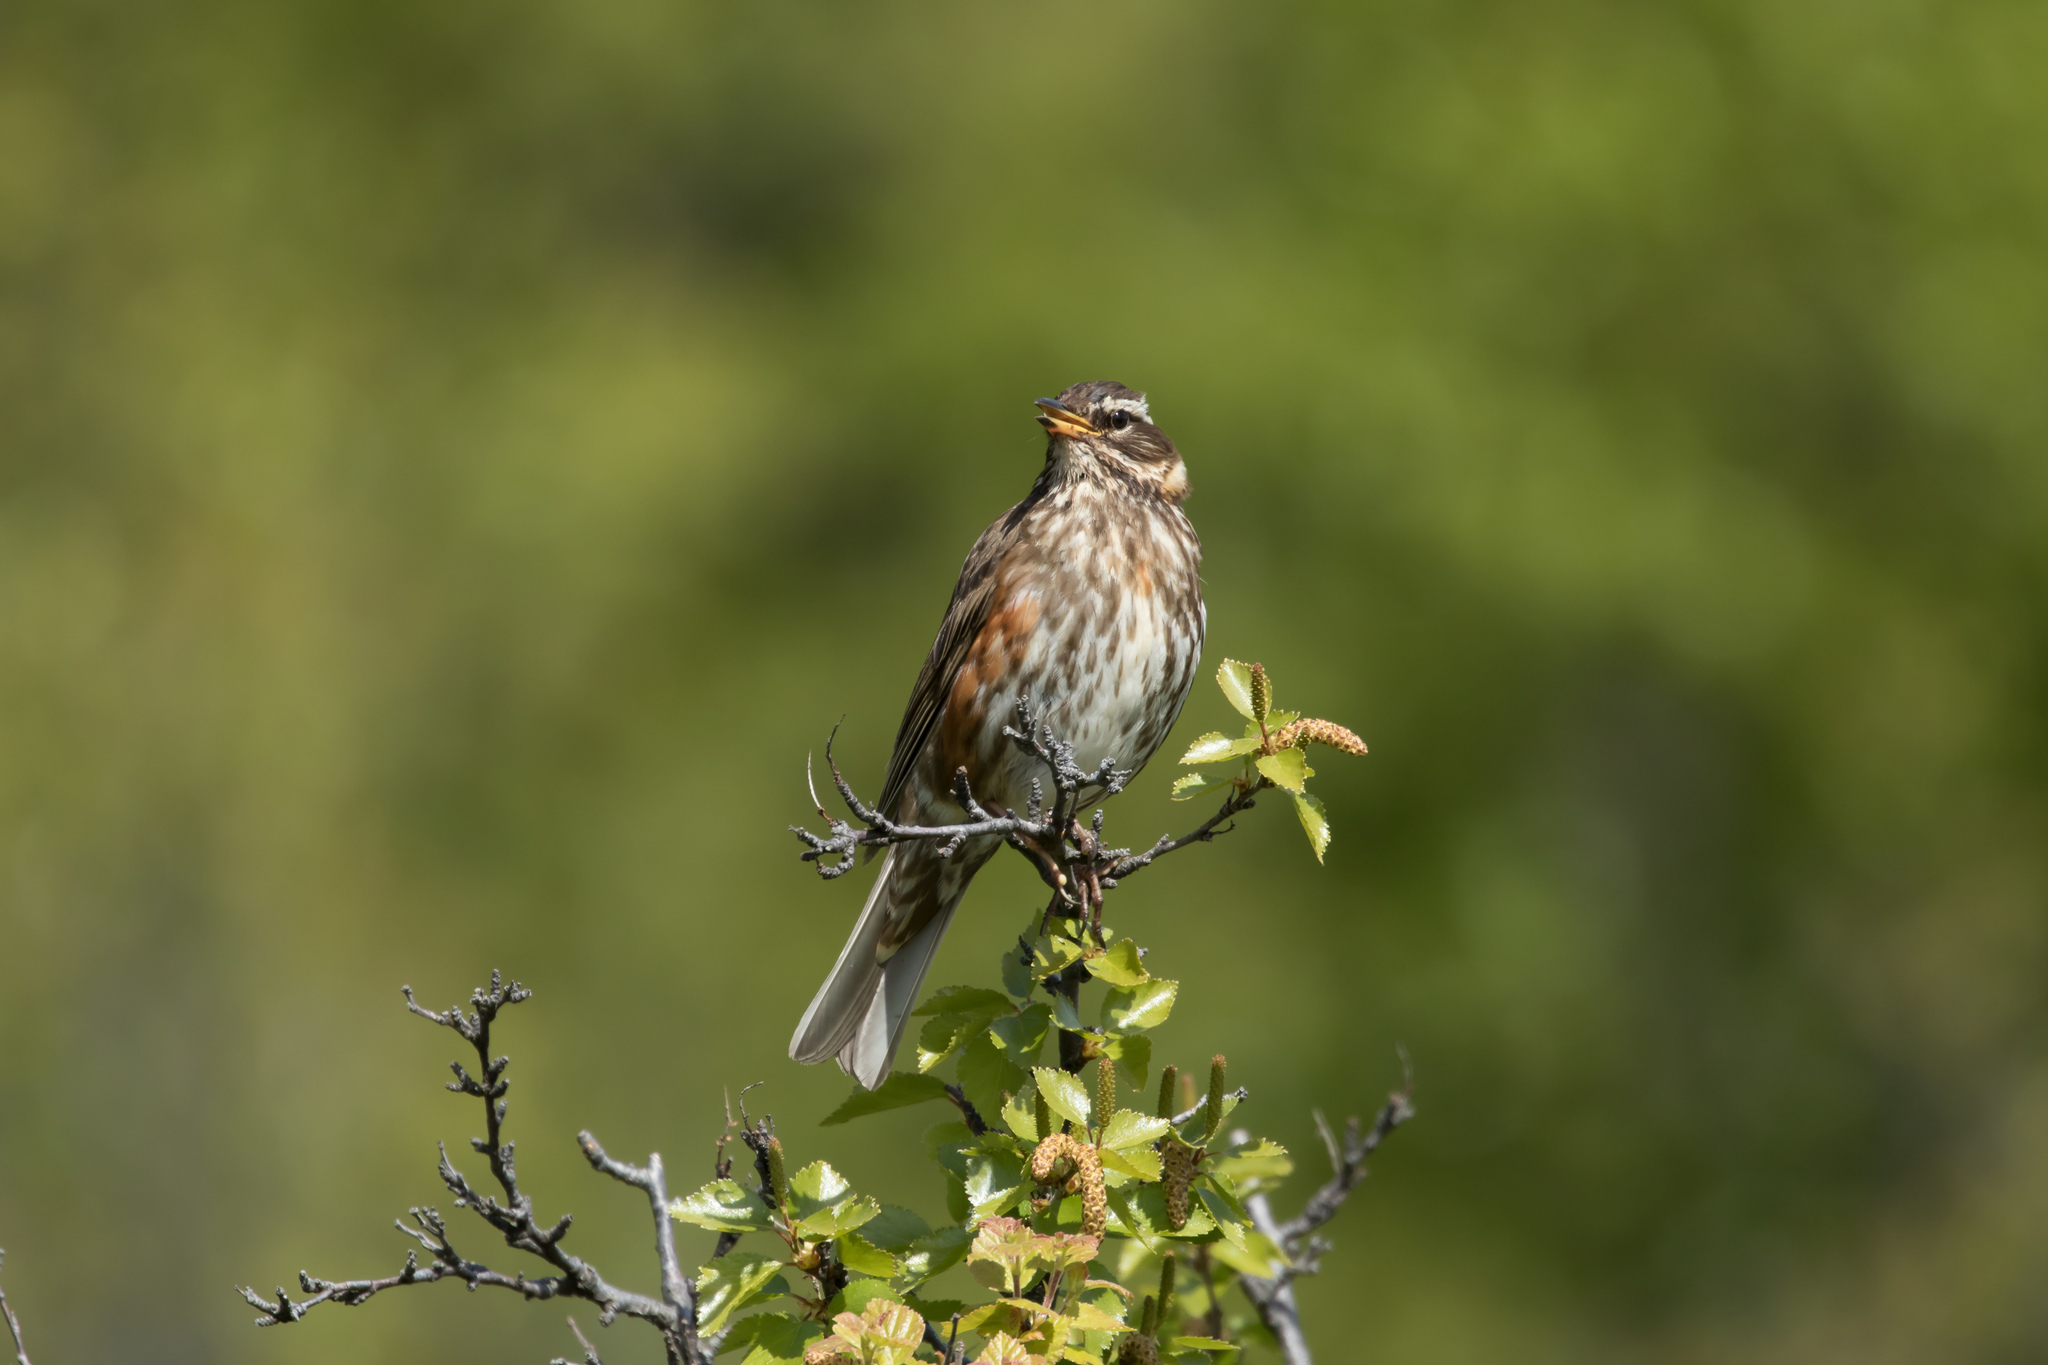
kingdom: Animalia
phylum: Chordata
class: Aves
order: Passeriformes
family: Turdidae
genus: Turdus
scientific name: Turdus iliacus
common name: Redwing
